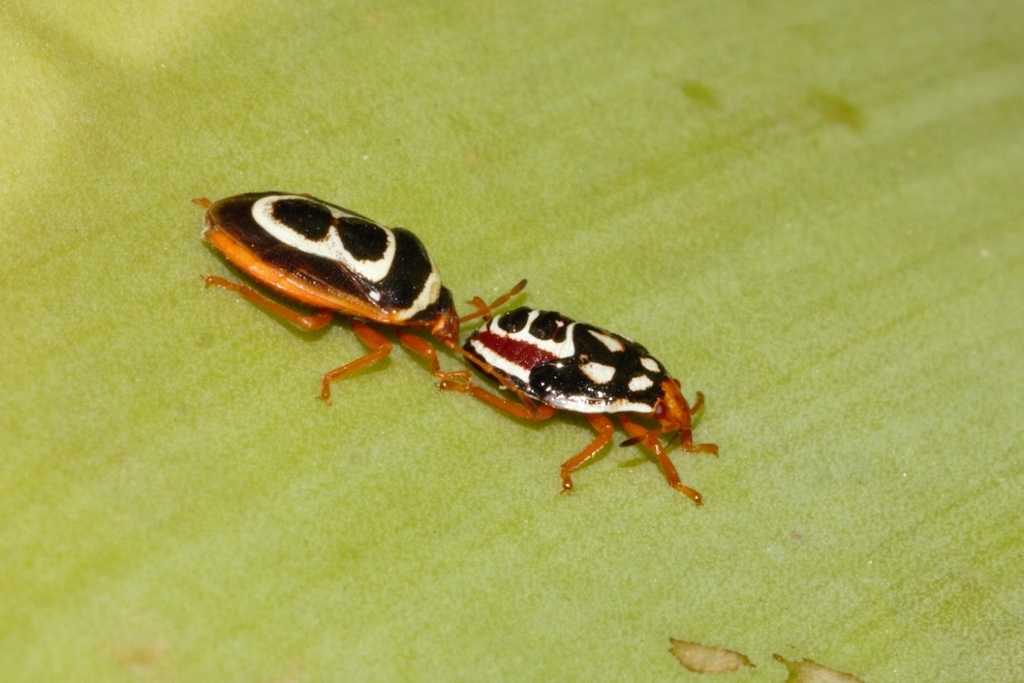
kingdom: Animalia
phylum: Arthropoda
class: Insecta
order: Hemiptera
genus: Flaminia
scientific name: Flaminia
